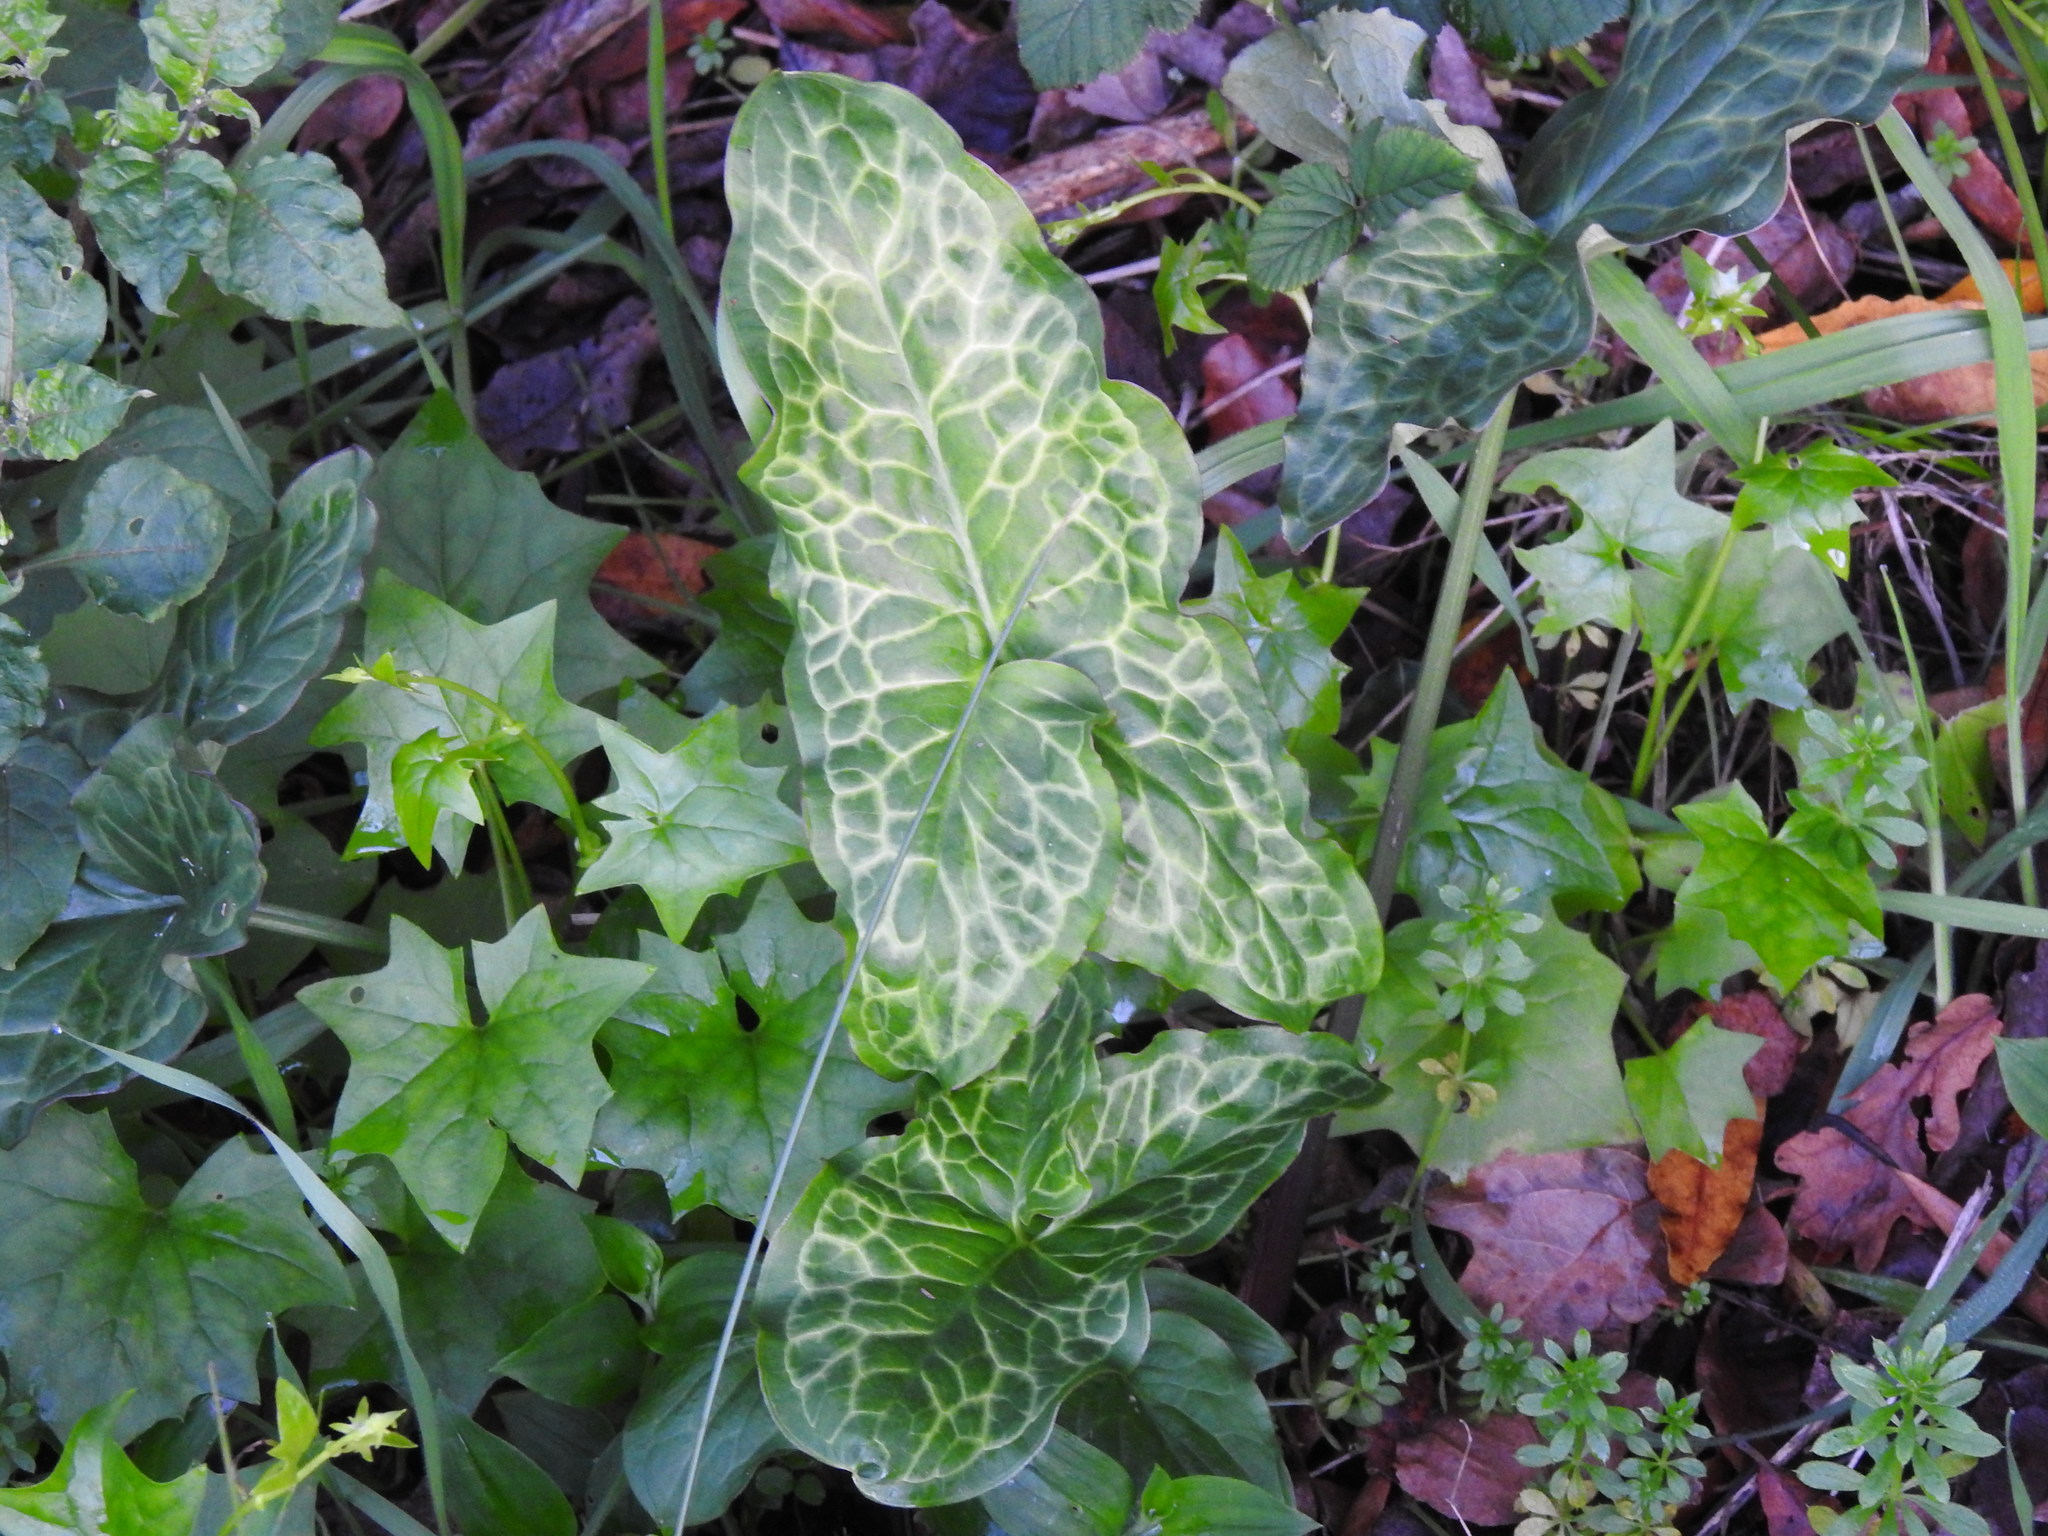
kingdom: Plantae
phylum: Tracheophyta
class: Liliopsida
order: Alismatales
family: Araceae
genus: Arum
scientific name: Arum italicum
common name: Italian lords-and-ladies
